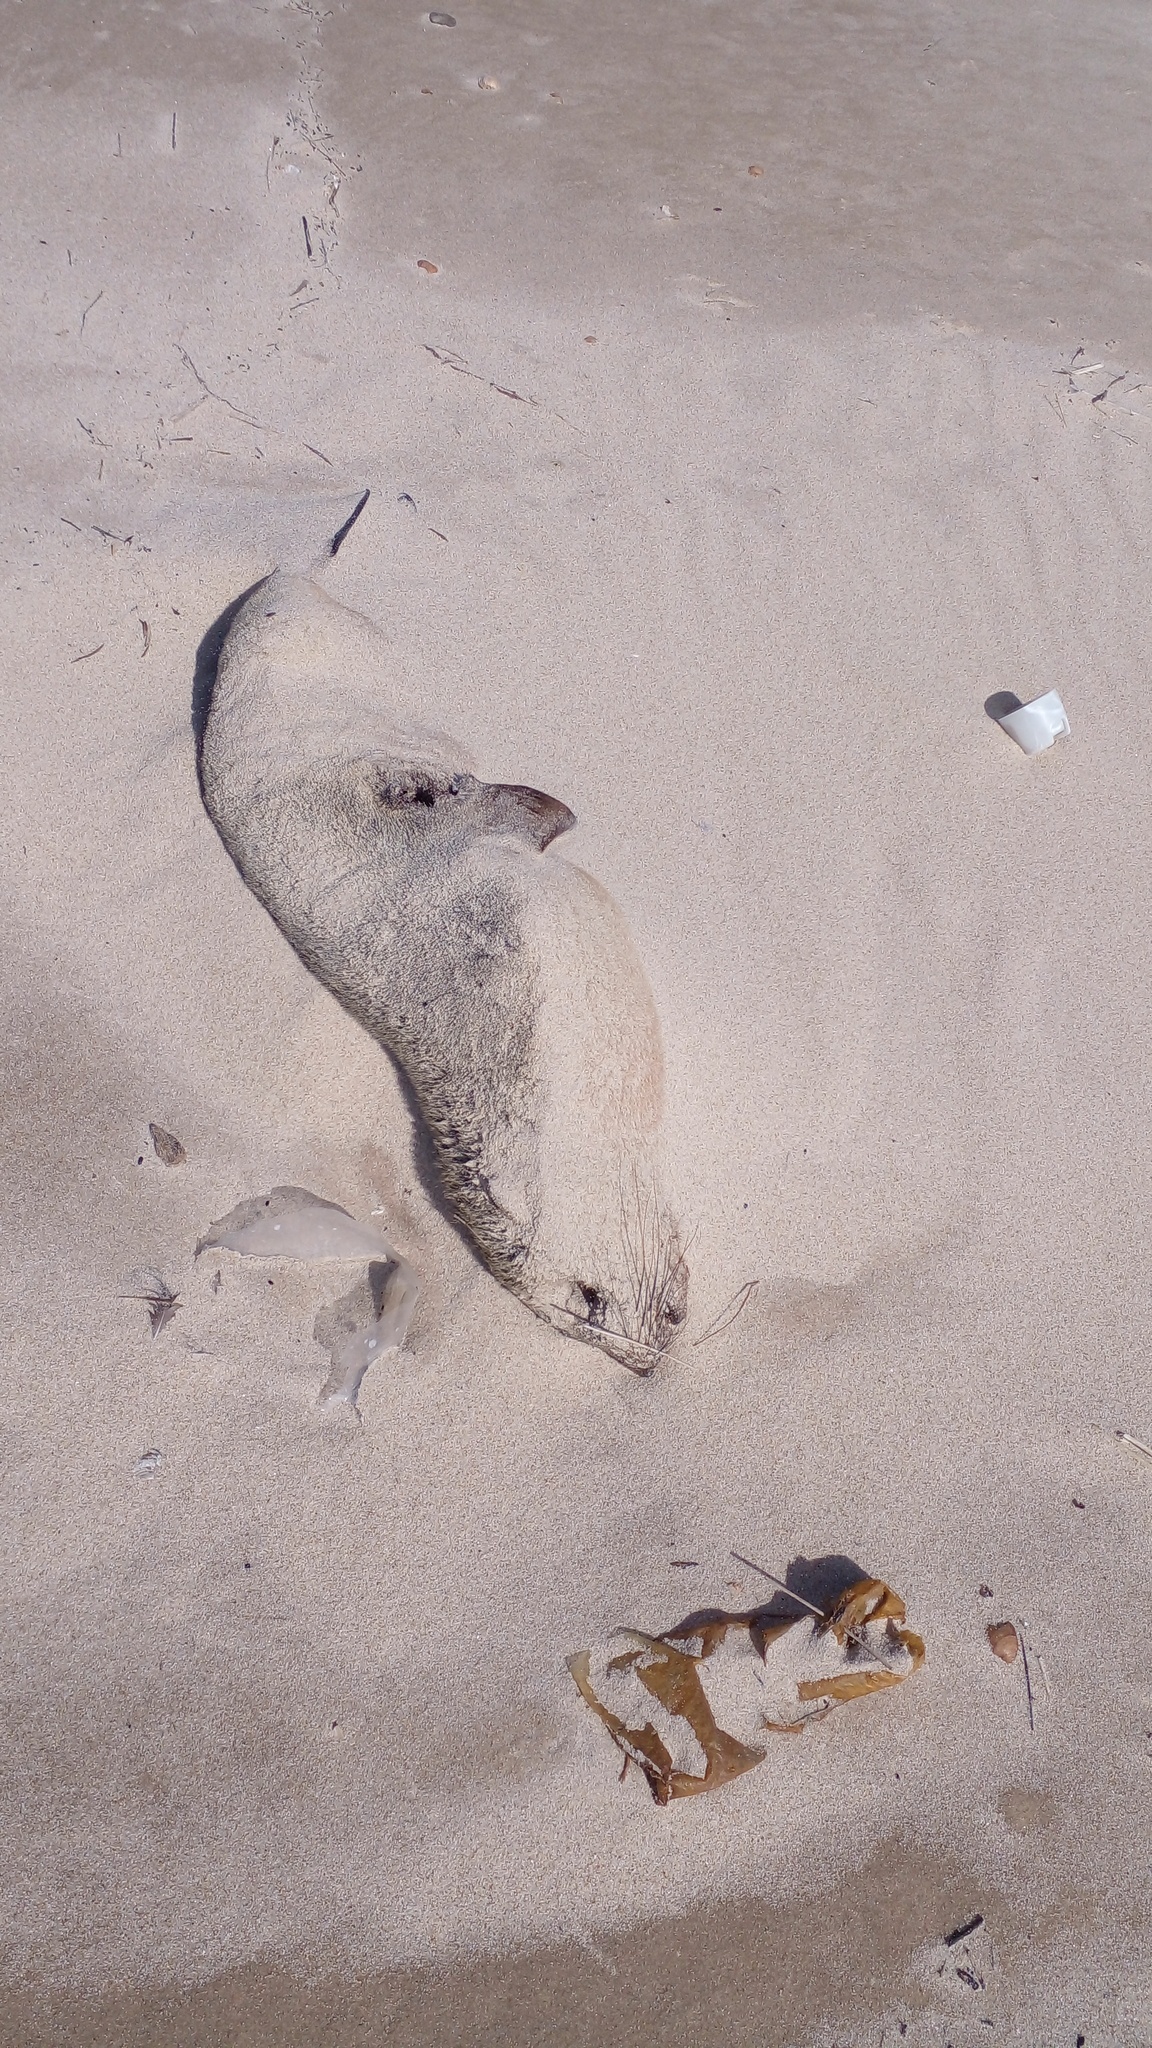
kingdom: Animalia
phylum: Chordata
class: Mammalia
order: Carnivora
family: Otariidae
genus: Arctocephalus
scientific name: Arctocephalus tropicalis
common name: Subantarctic fur seal
